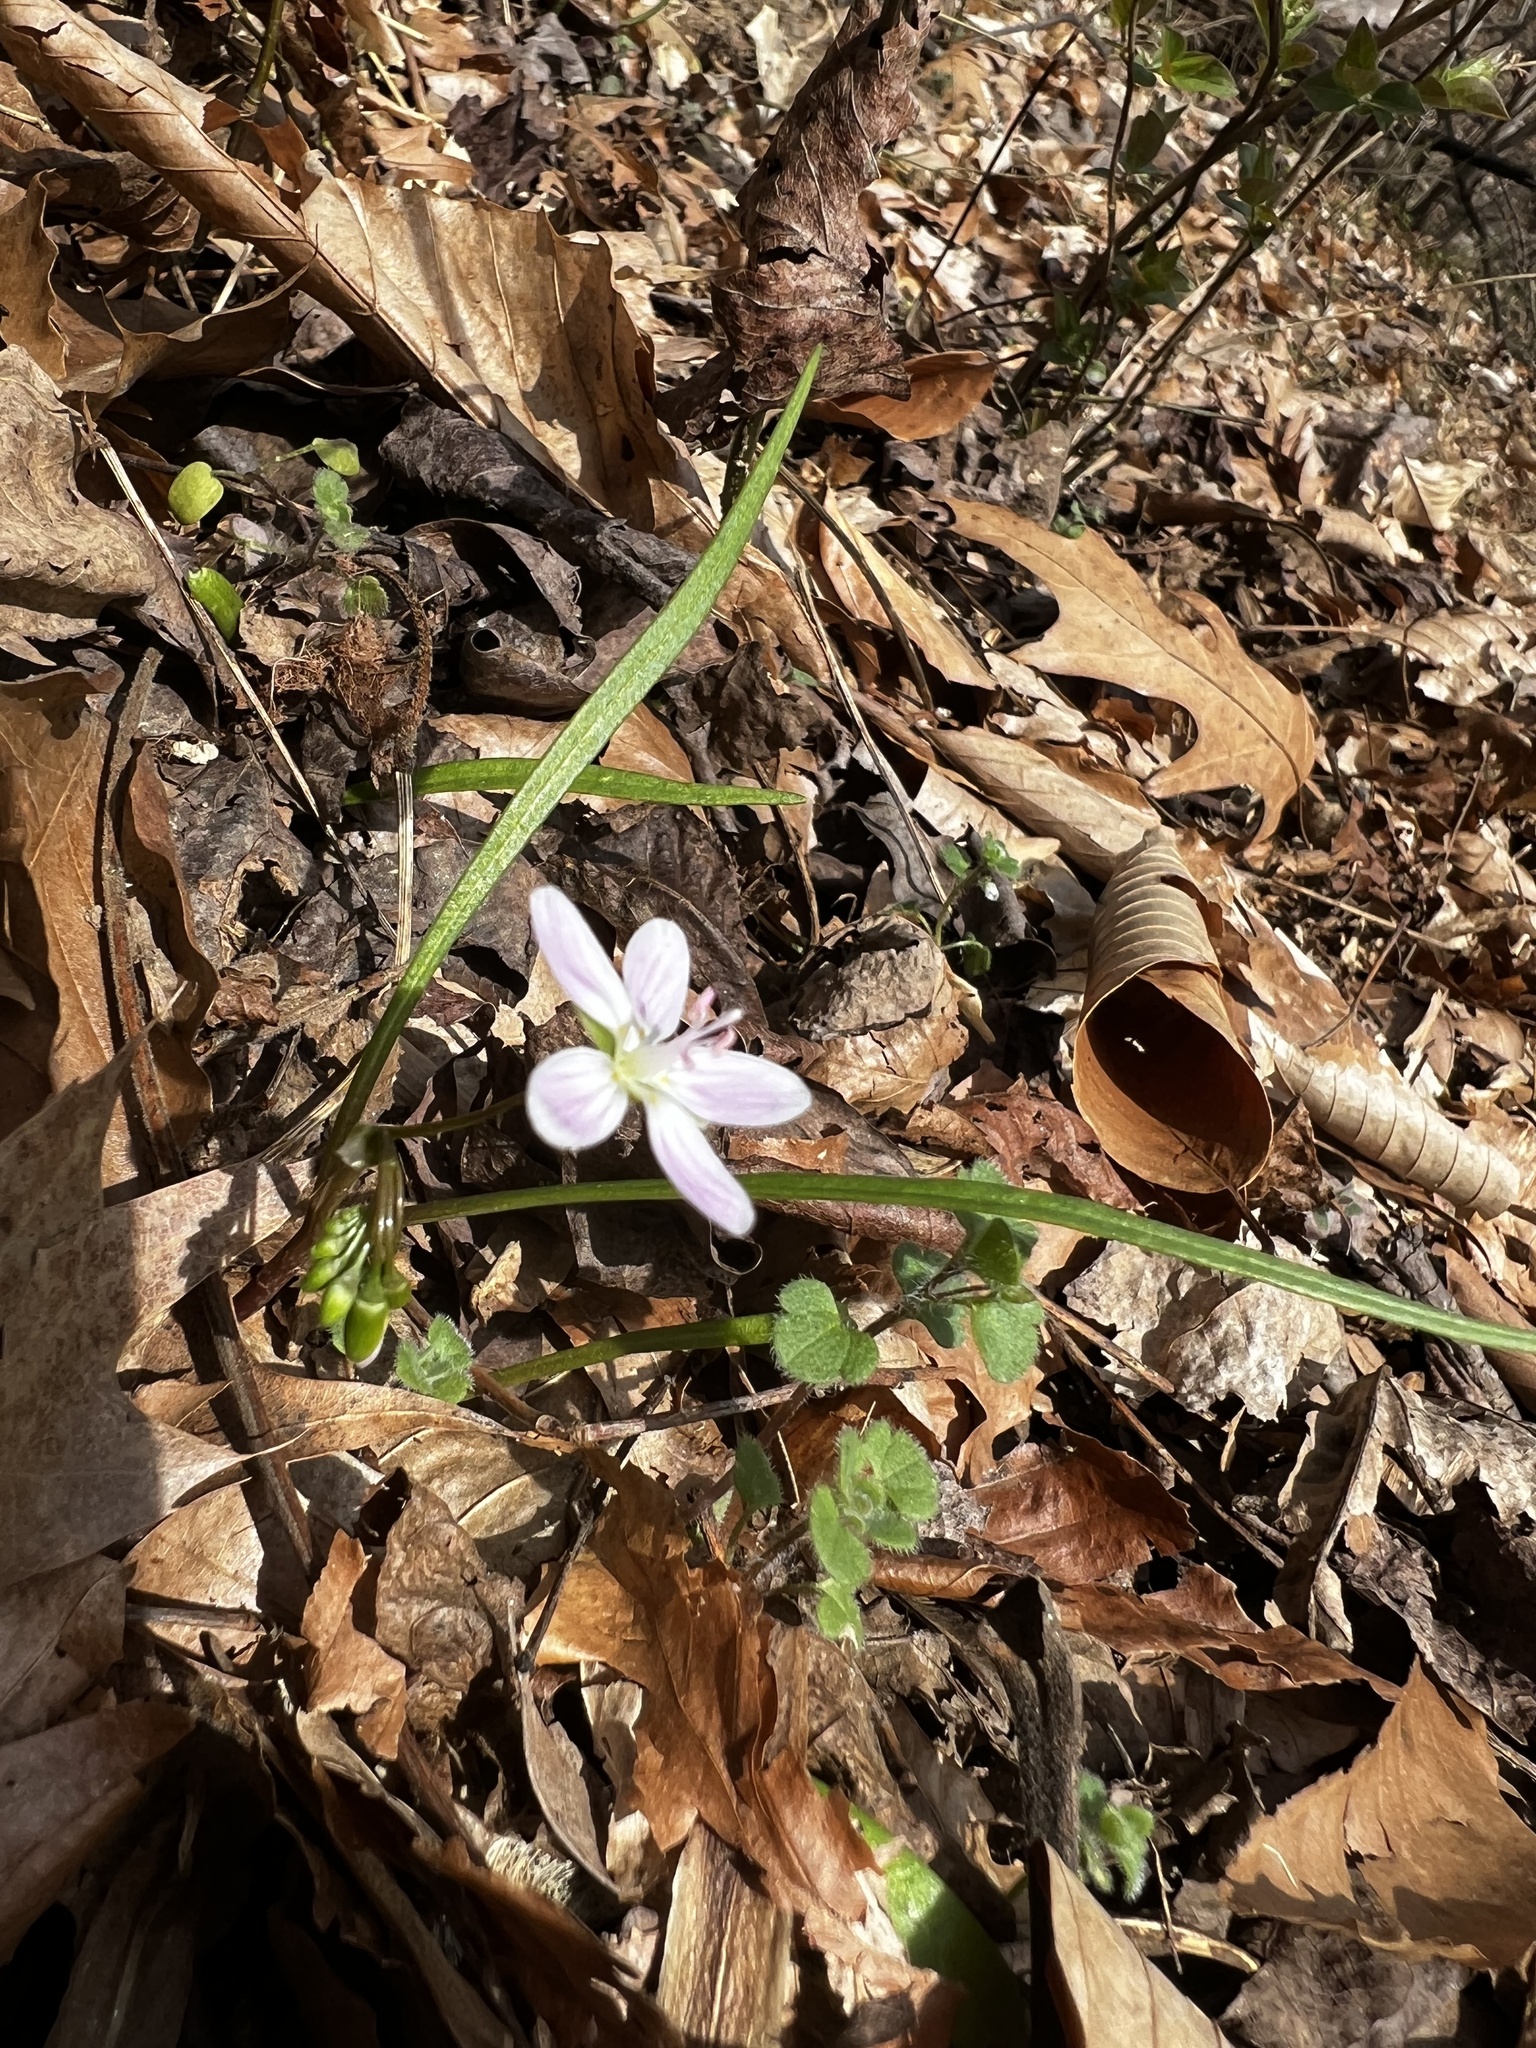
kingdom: Plantae
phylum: Tracheophyta
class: Magnoliopsida
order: Caryophyllales
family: Montiaceae
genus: Claytonia
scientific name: Claytonia virginica
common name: Virginia springbeauty
